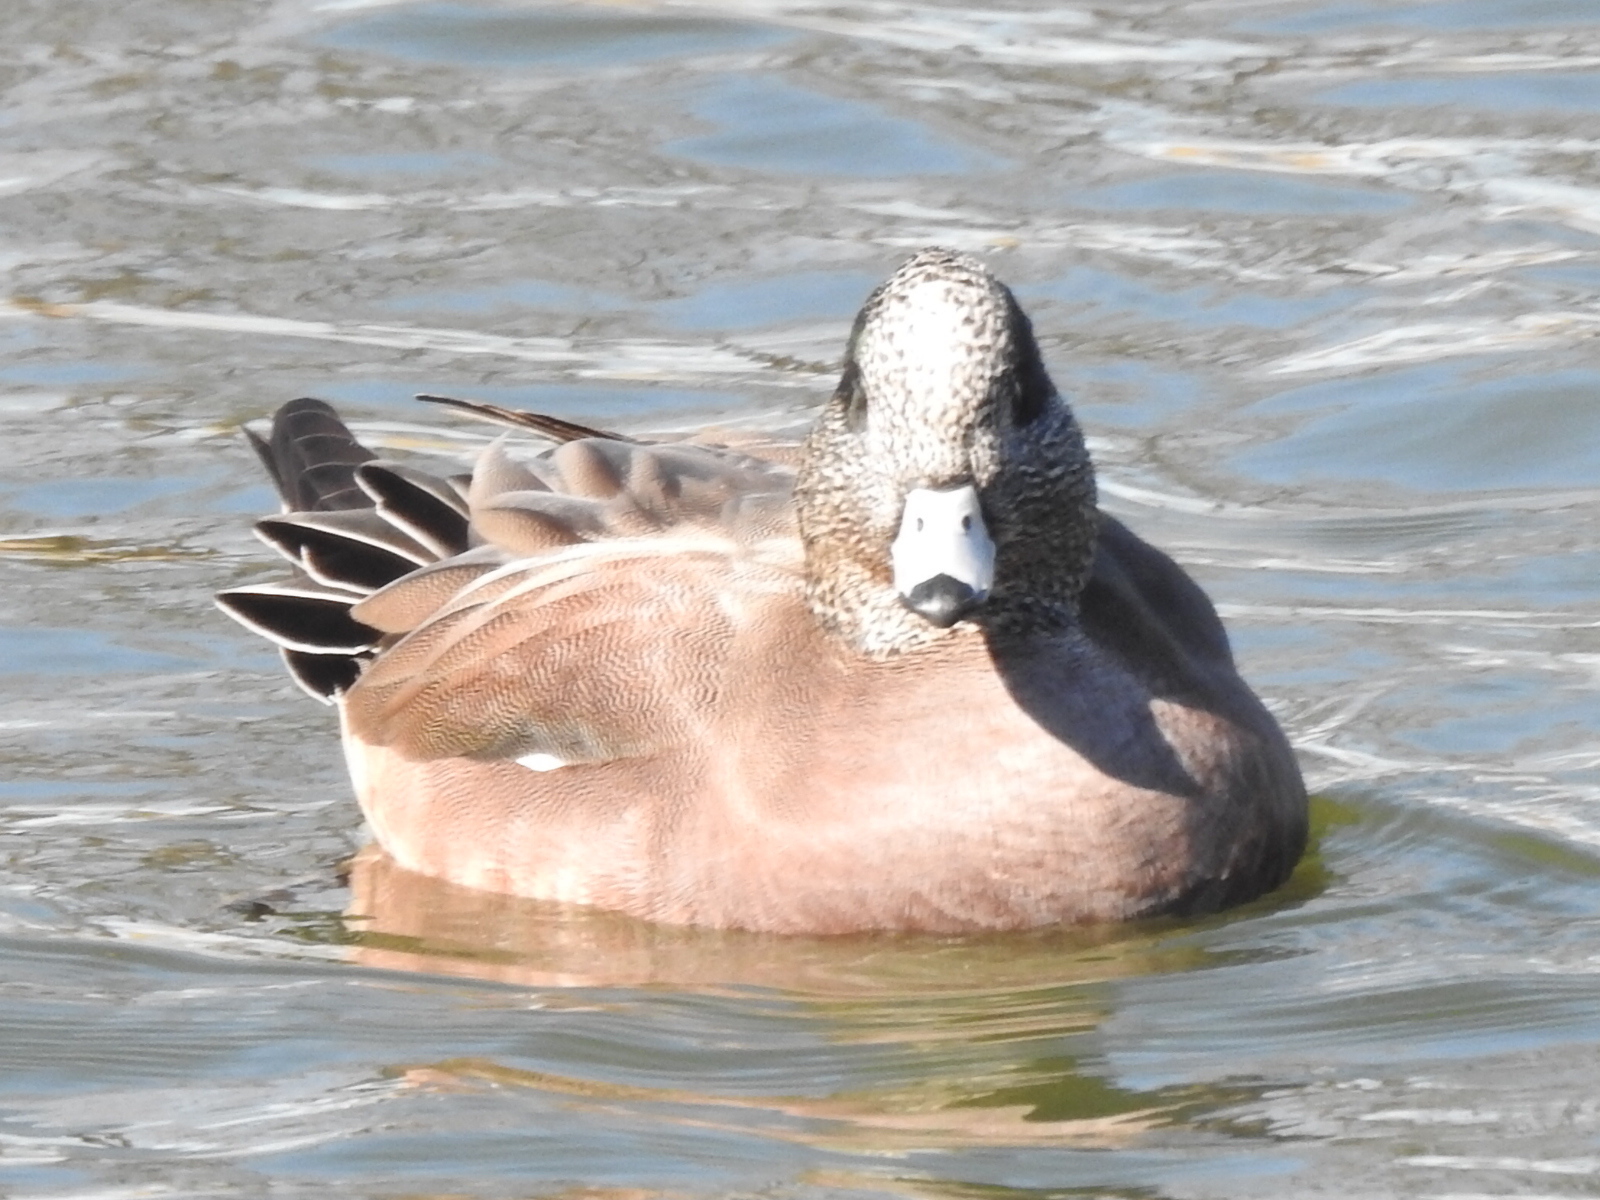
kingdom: Animalia
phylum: Chordata
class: Aves
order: Anseriformes
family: Anatidae
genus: Mareca
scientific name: Mareca americana
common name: American wigeon
